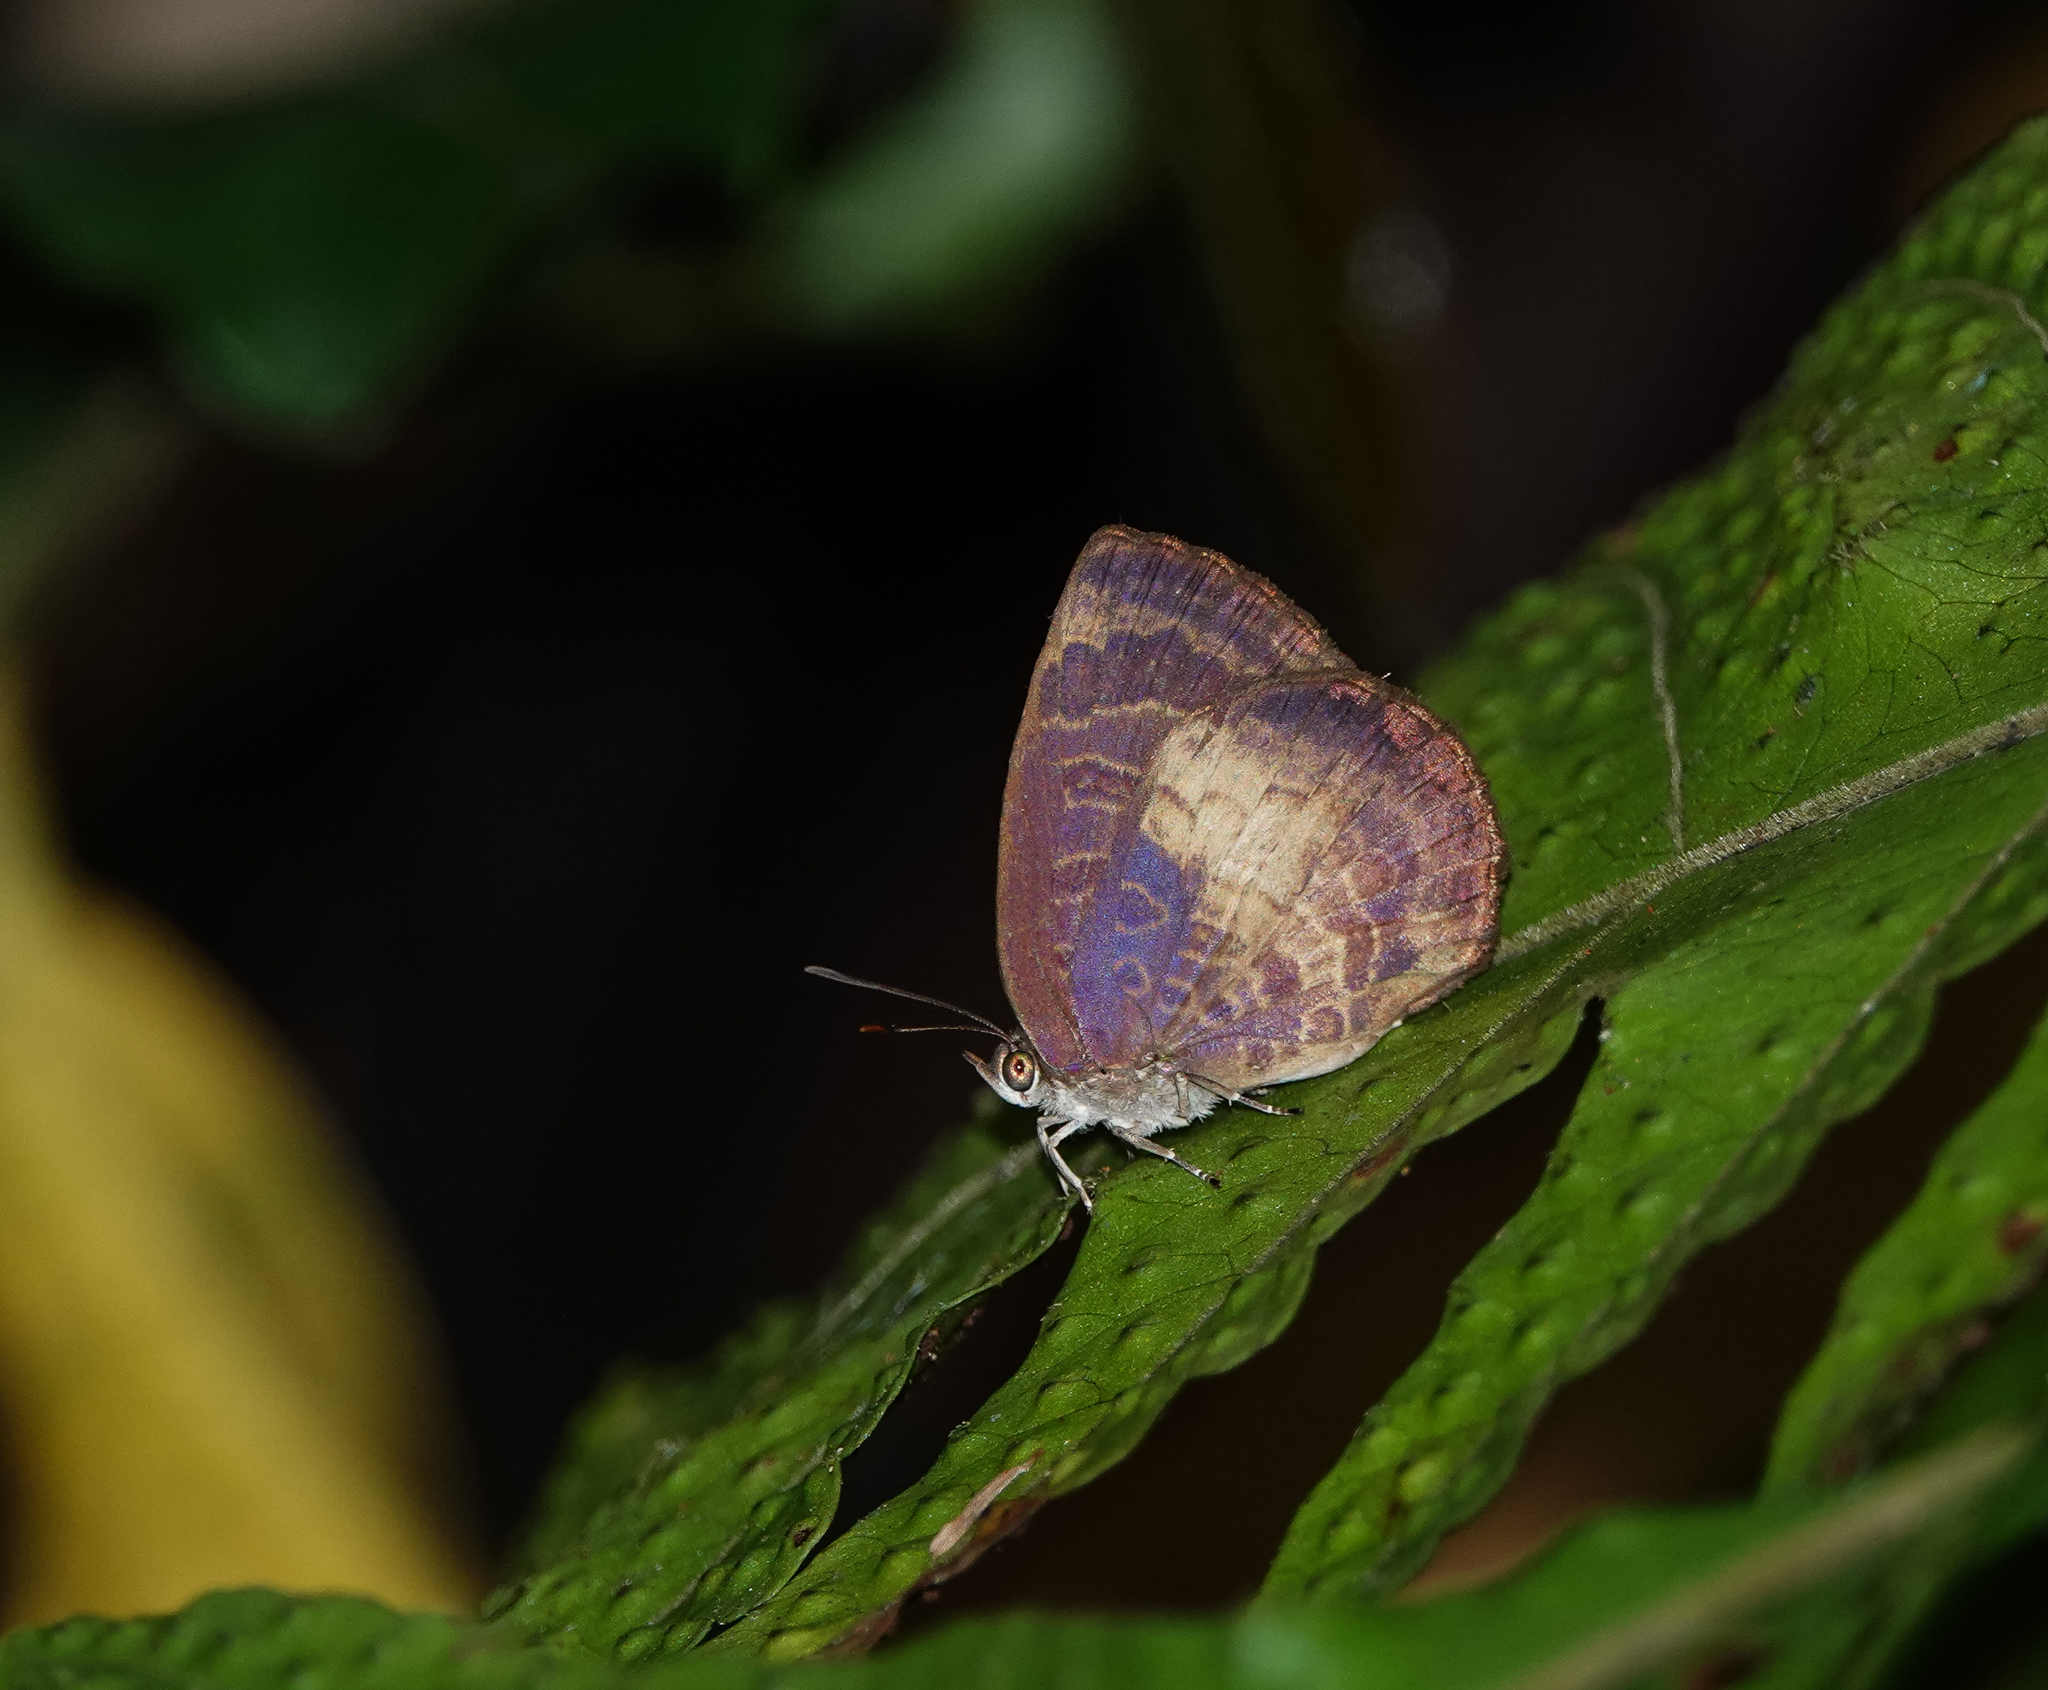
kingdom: Animalia
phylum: Arthropoda
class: Insecta
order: Lepidoptera
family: Lycaenidae
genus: Arhopala
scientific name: Arhopala perimuta
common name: Yellowdisc oakblue
